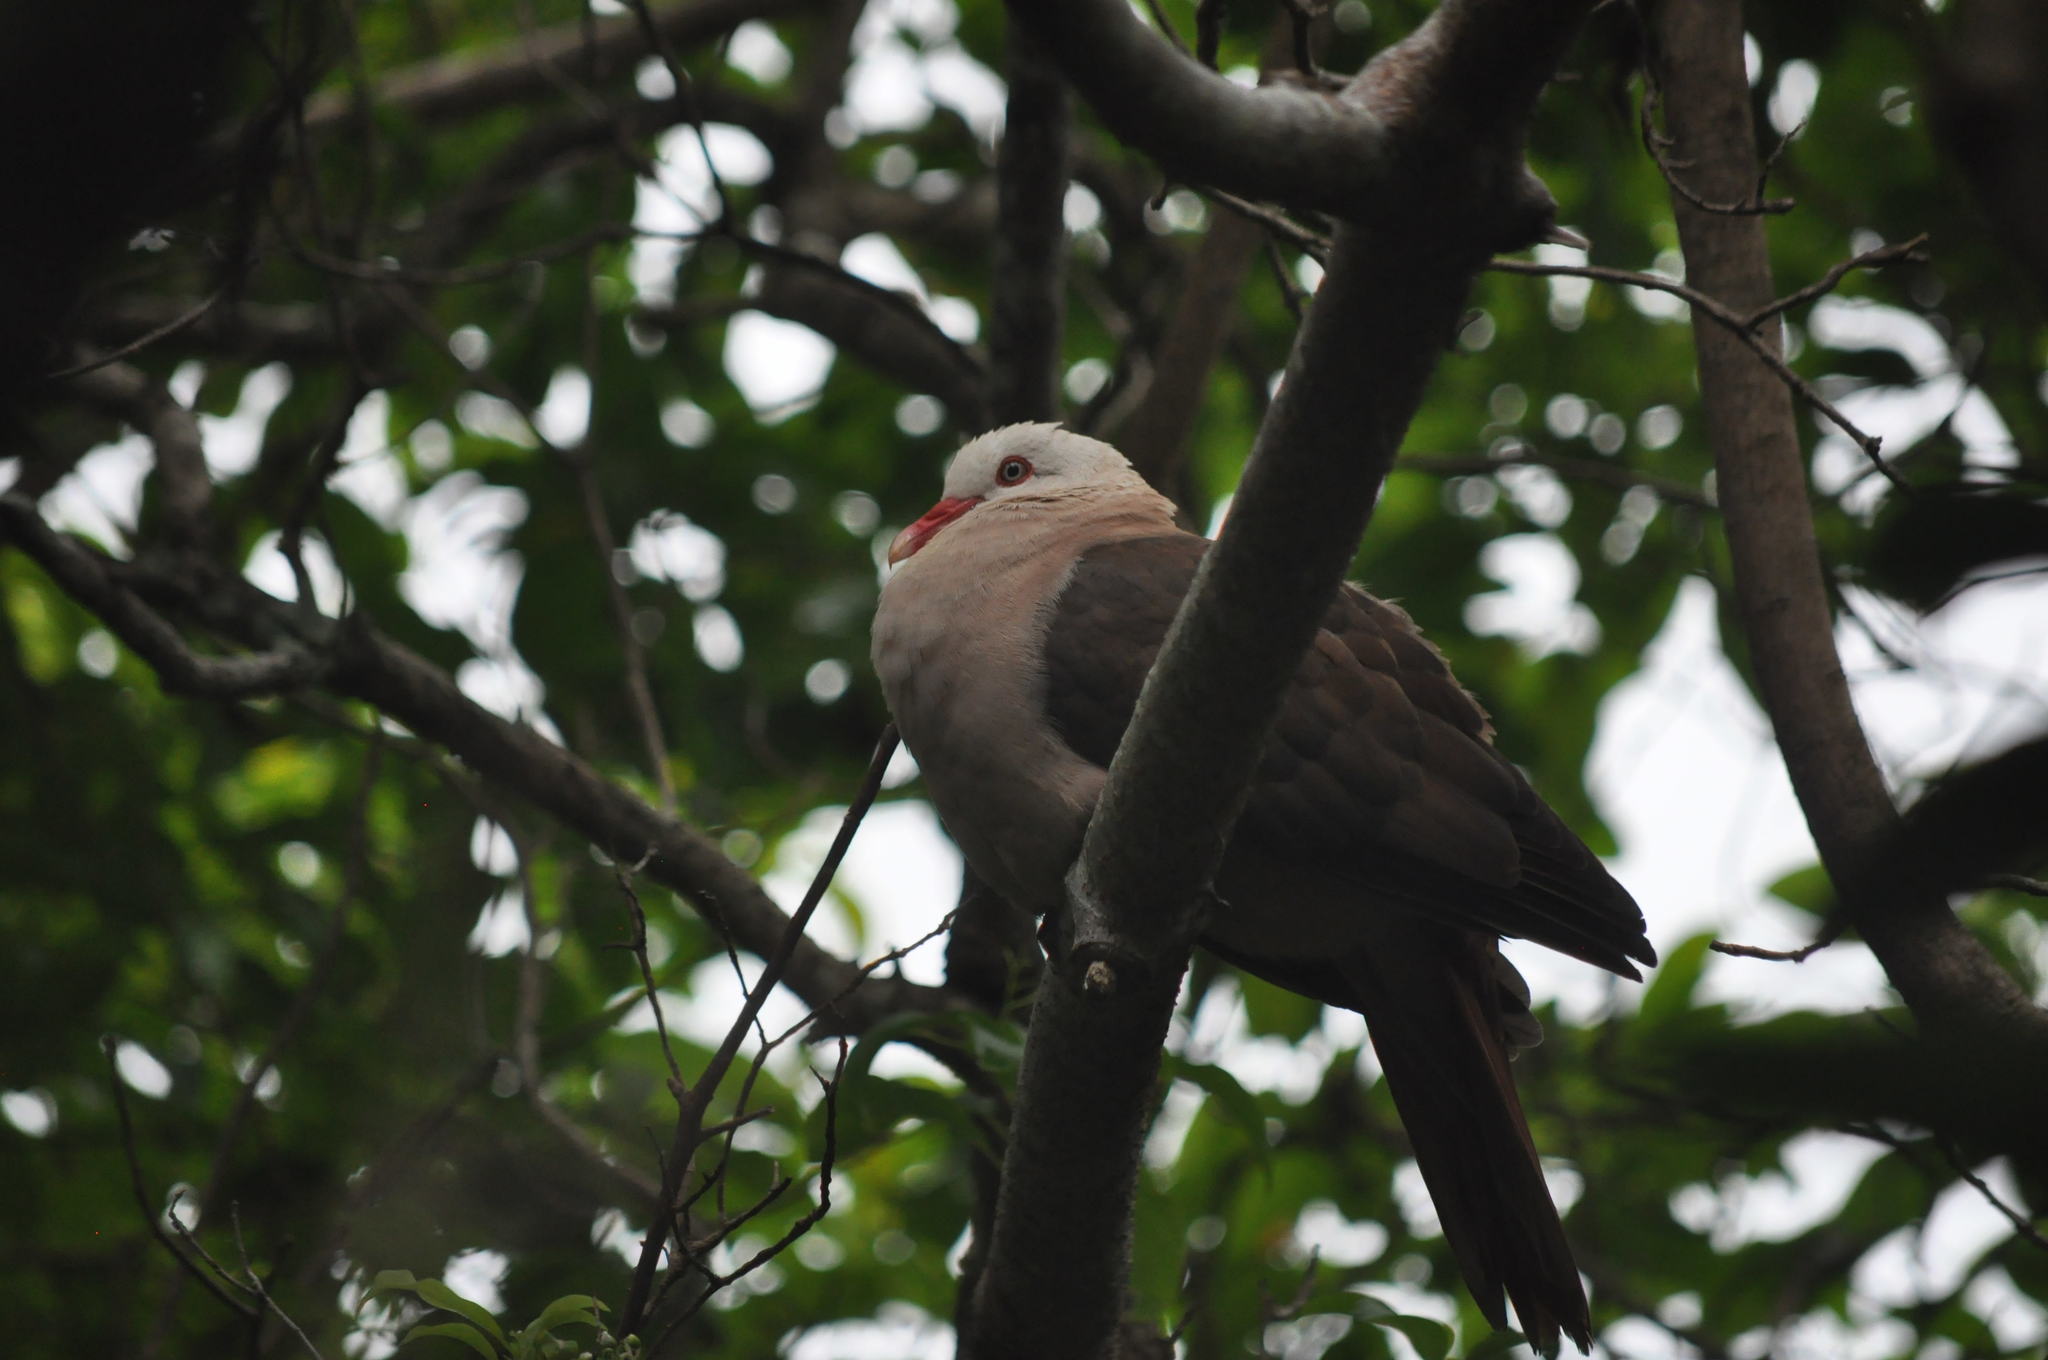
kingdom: Animalia
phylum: Chordata
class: Aves
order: Columbiformes
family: Columbidae
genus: Nesoenas
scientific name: Nesoenas mayeri
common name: Pink pigeon
